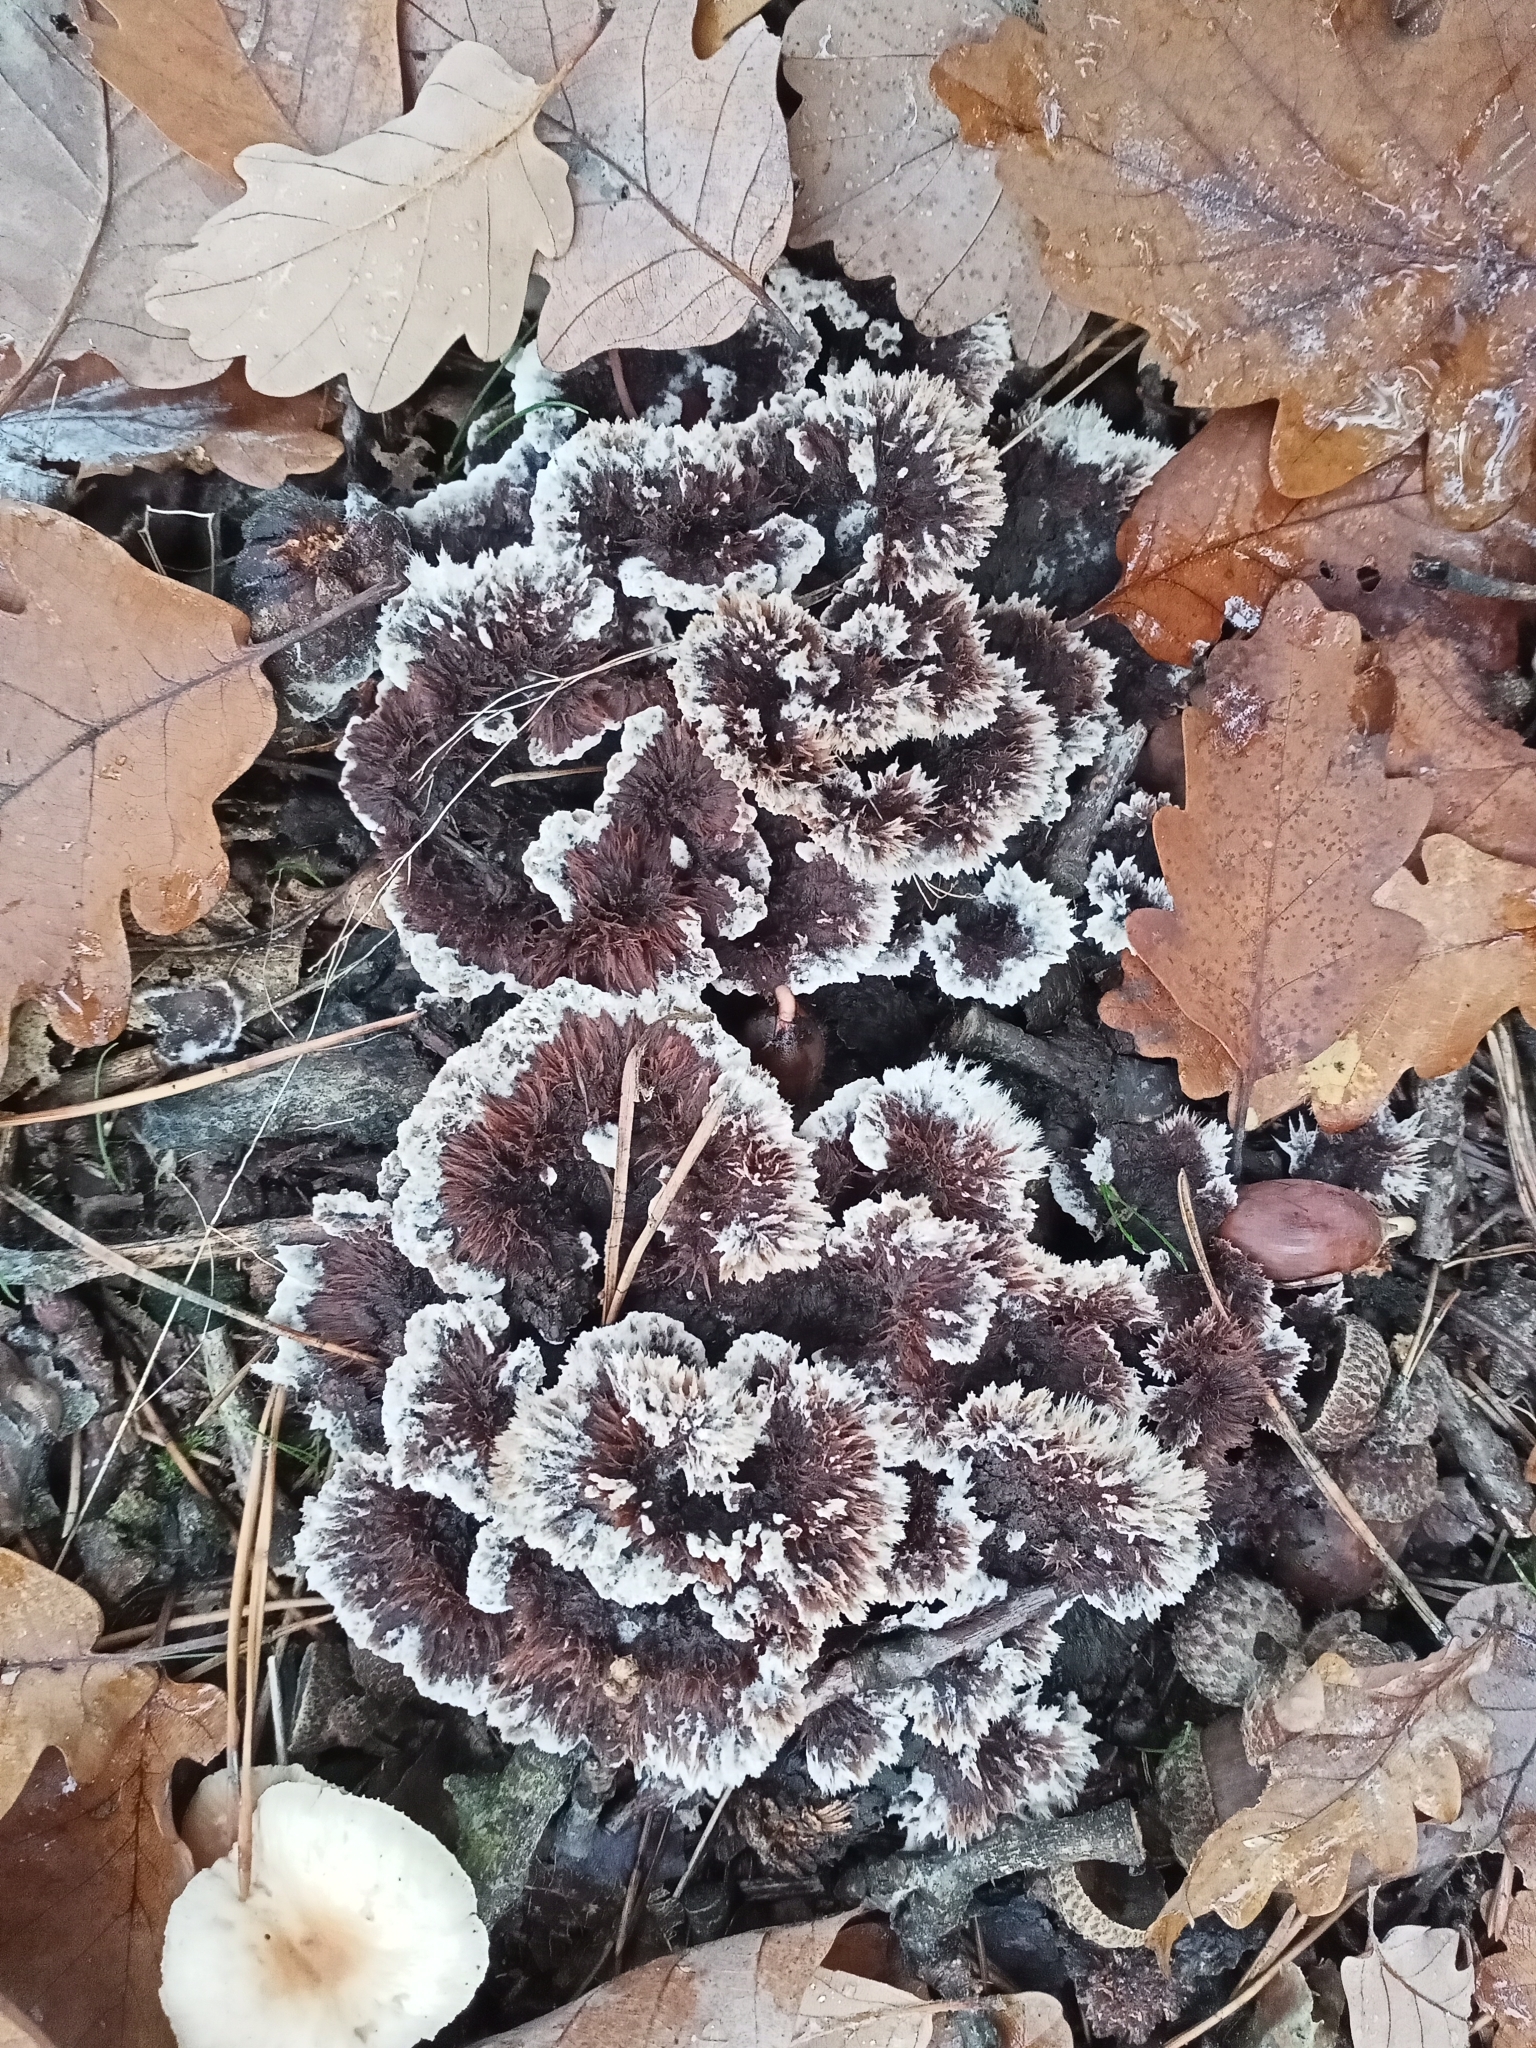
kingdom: Fungi
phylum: Basidiomycota
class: Agaricomycetes
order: Thelephorales
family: Thelephoraceae
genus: Thelephora
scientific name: Thelephora terrestris
